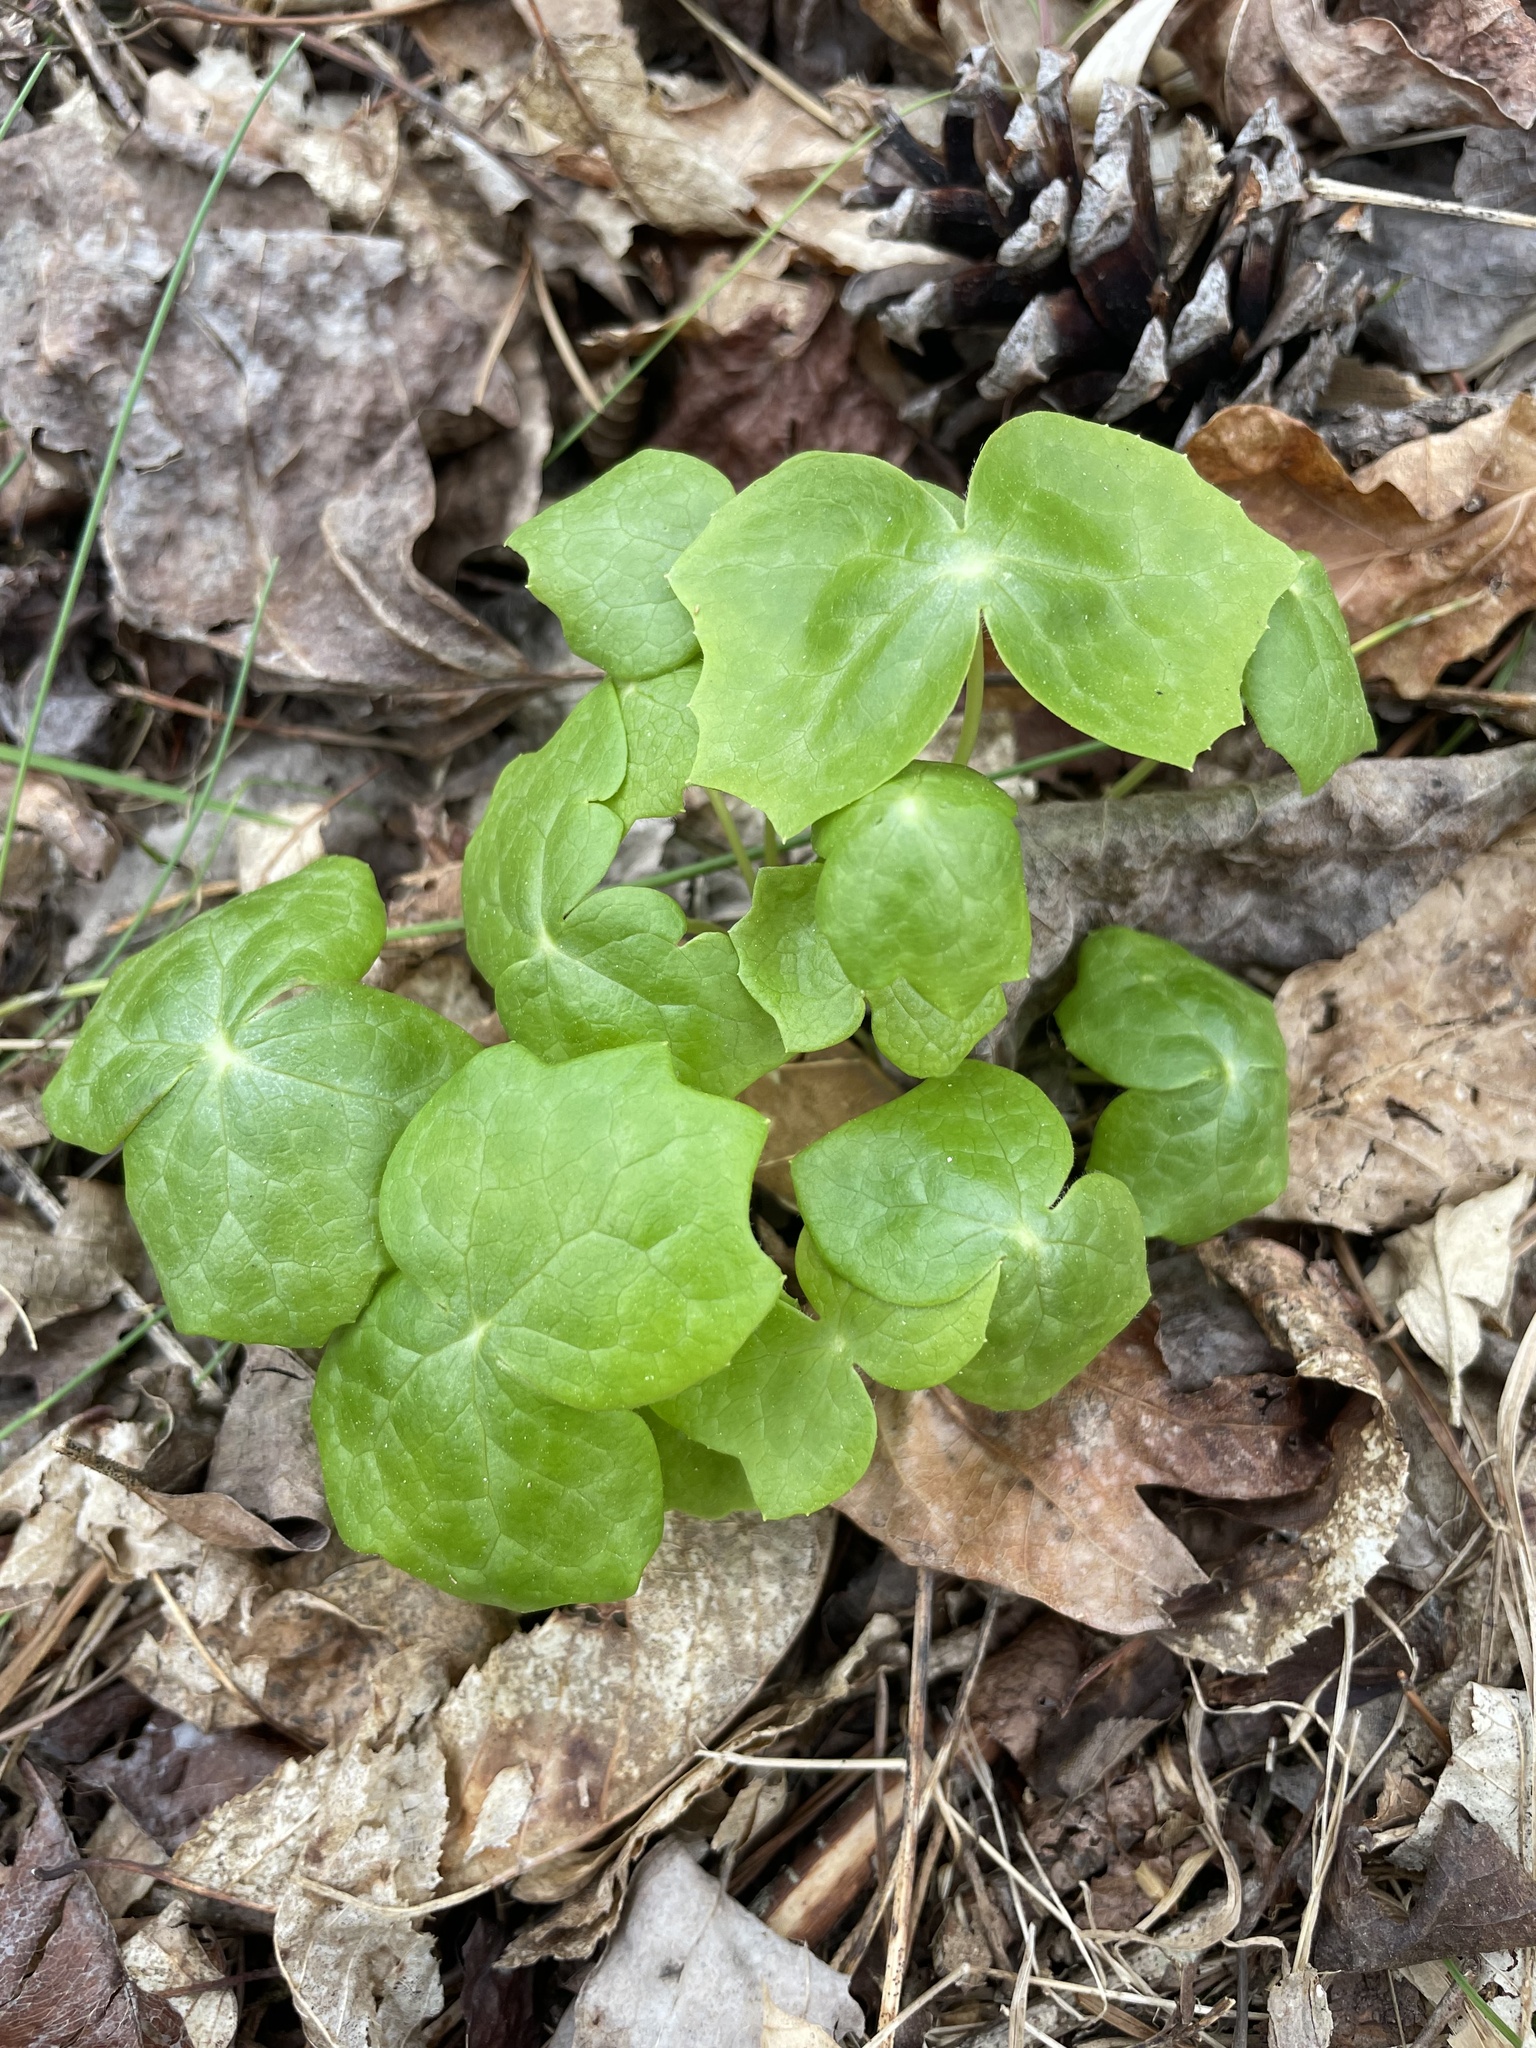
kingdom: Plantae
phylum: Tracheophyta
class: Magnoliopsida
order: Ranunculales
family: Berberidaceae
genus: Podophyllum
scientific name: Podophyllum peltatum
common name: Wild mandrake
